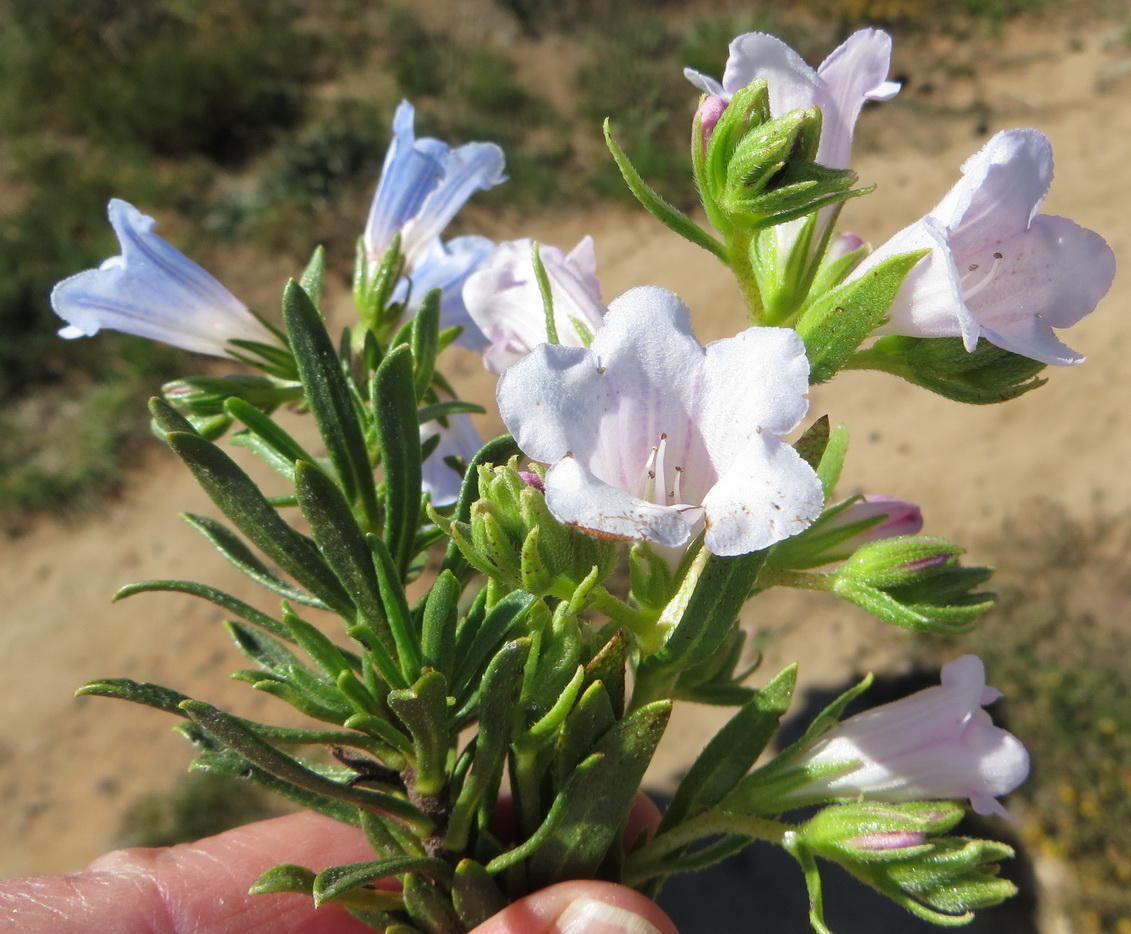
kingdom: Plantae
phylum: Tracheophyta
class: Magnoliopsida
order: Boraginales
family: Boraginaceae
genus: Lobostemon
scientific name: Lobostemon fruticosus
